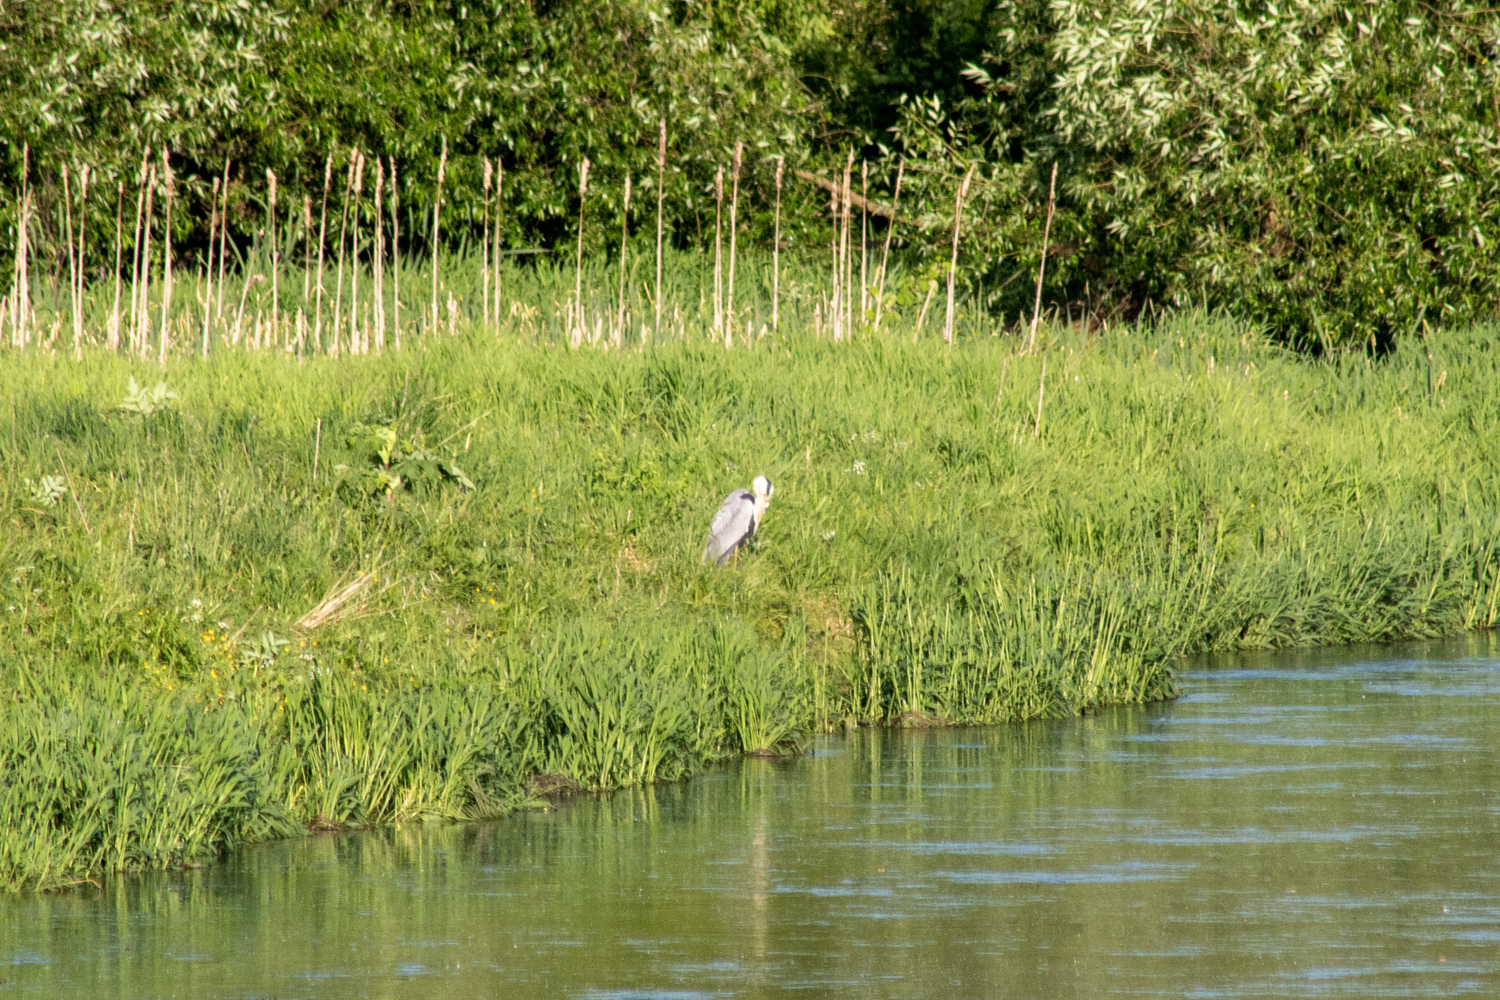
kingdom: Animalia
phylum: Chordata
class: Aves
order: Pelecaniformes
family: Ardeidae
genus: Ardea
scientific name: Ardea cinerea
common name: Grey heron
